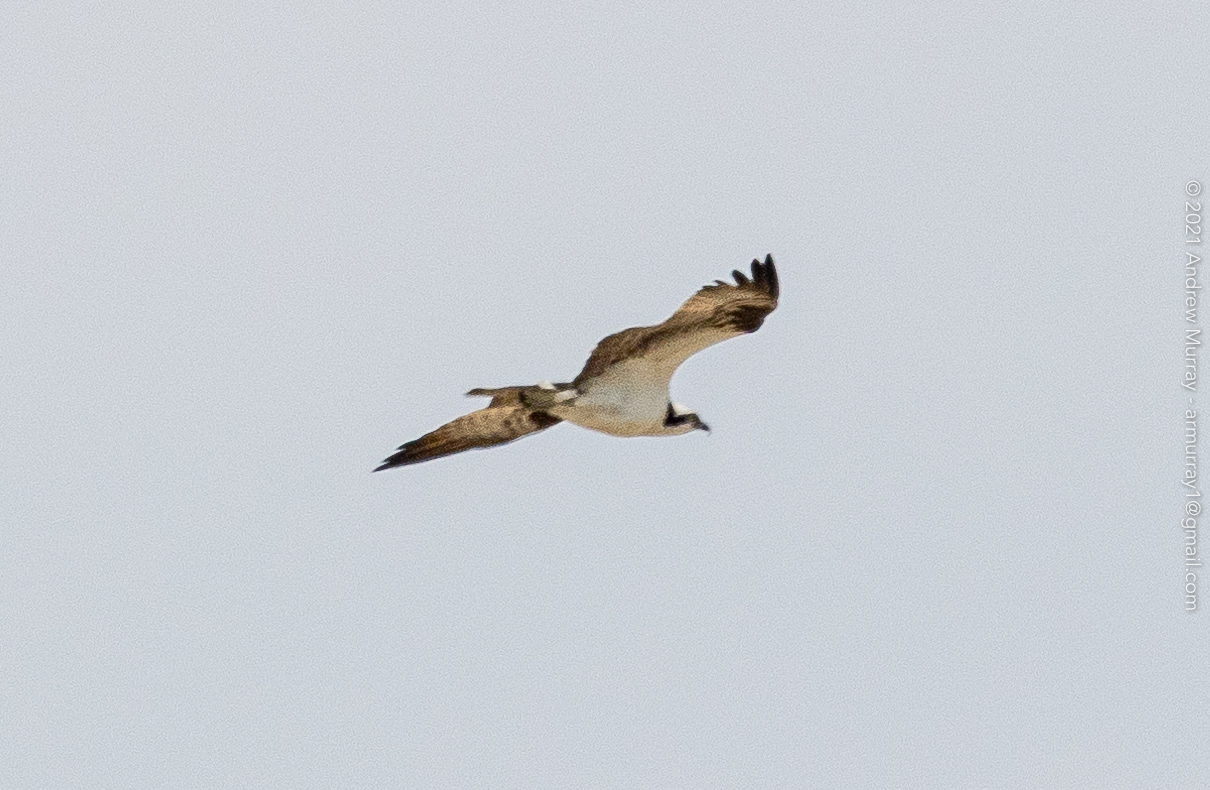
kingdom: Animalia
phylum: Chordata
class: Aves
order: Accipitriformes
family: Pandionidae
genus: Pandion
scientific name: Pandion haliaetus
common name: Osprey
